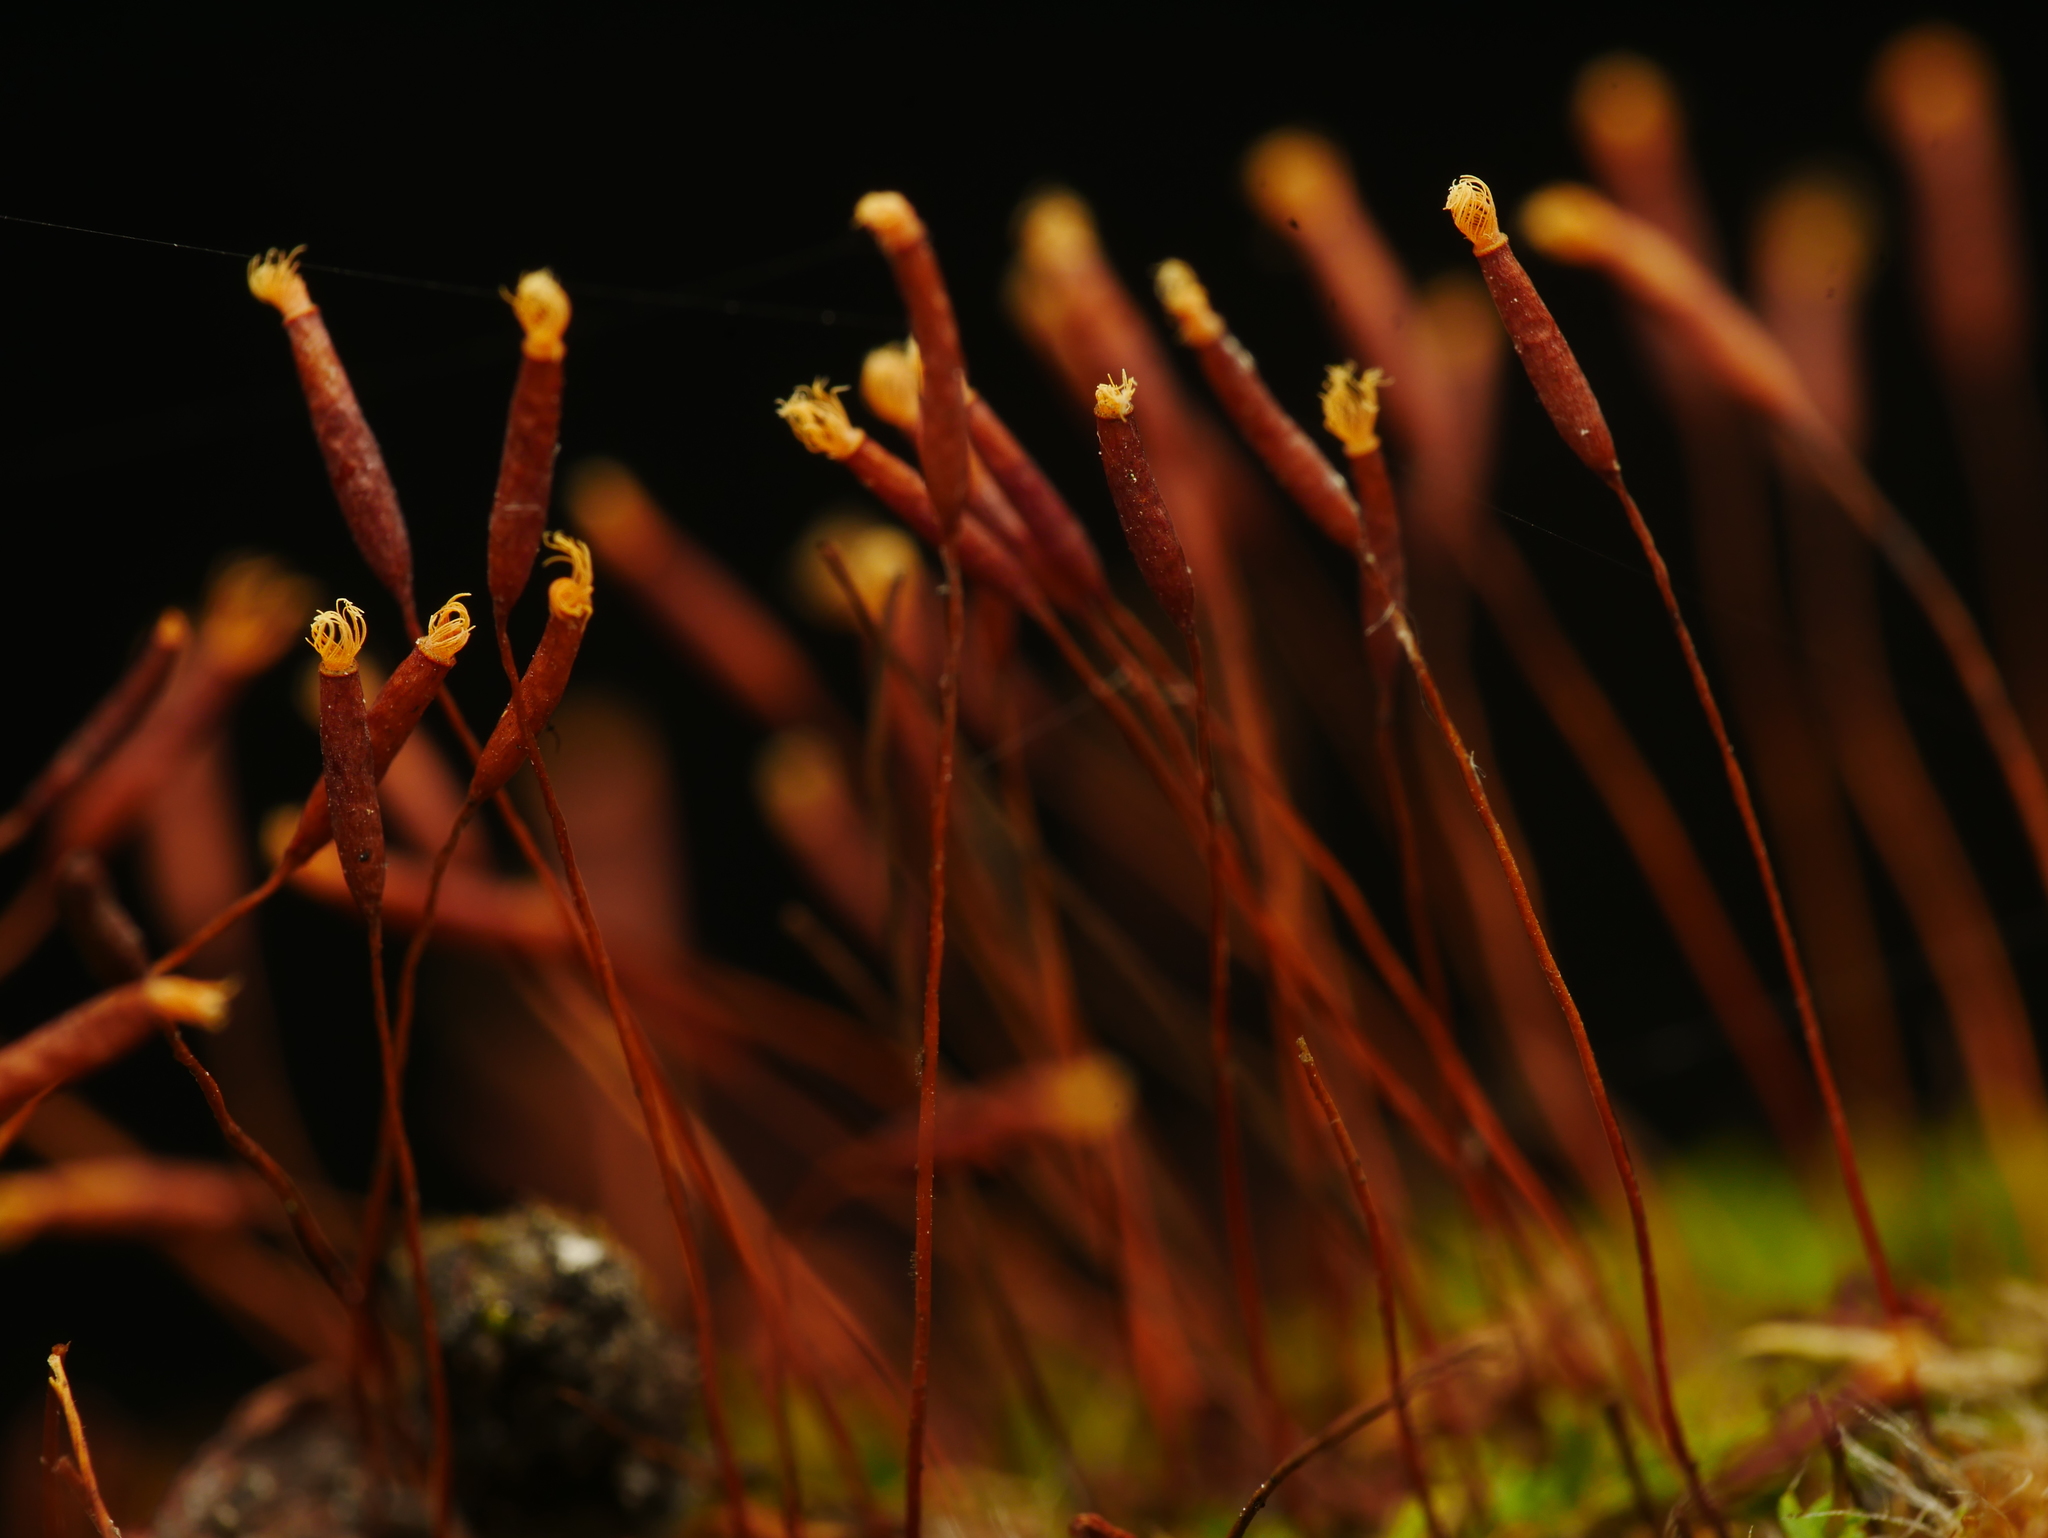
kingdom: Plantae
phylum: Bryophyta
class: Bryopsida
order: Pottiales
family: Pottiaceae
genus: Tortula
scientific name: Tortula muralis
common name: Wall screw-moss
